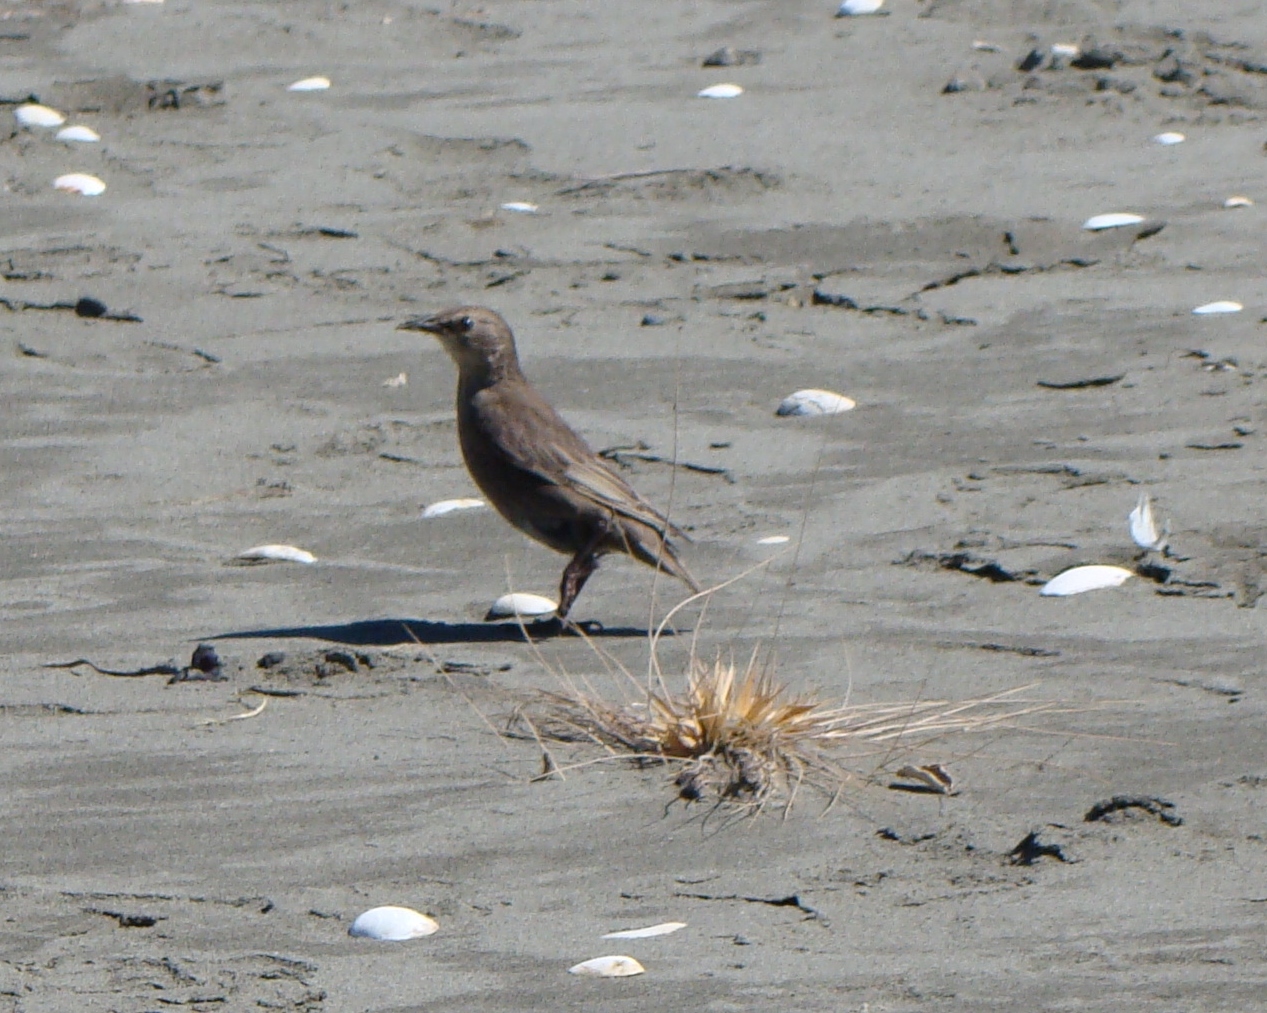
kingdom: Animalia
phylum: Chordata
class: Aves
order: Passeriformes
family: Sturnidae
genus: Sturnus
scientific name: Sturnus vulgaris
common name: Common starling
